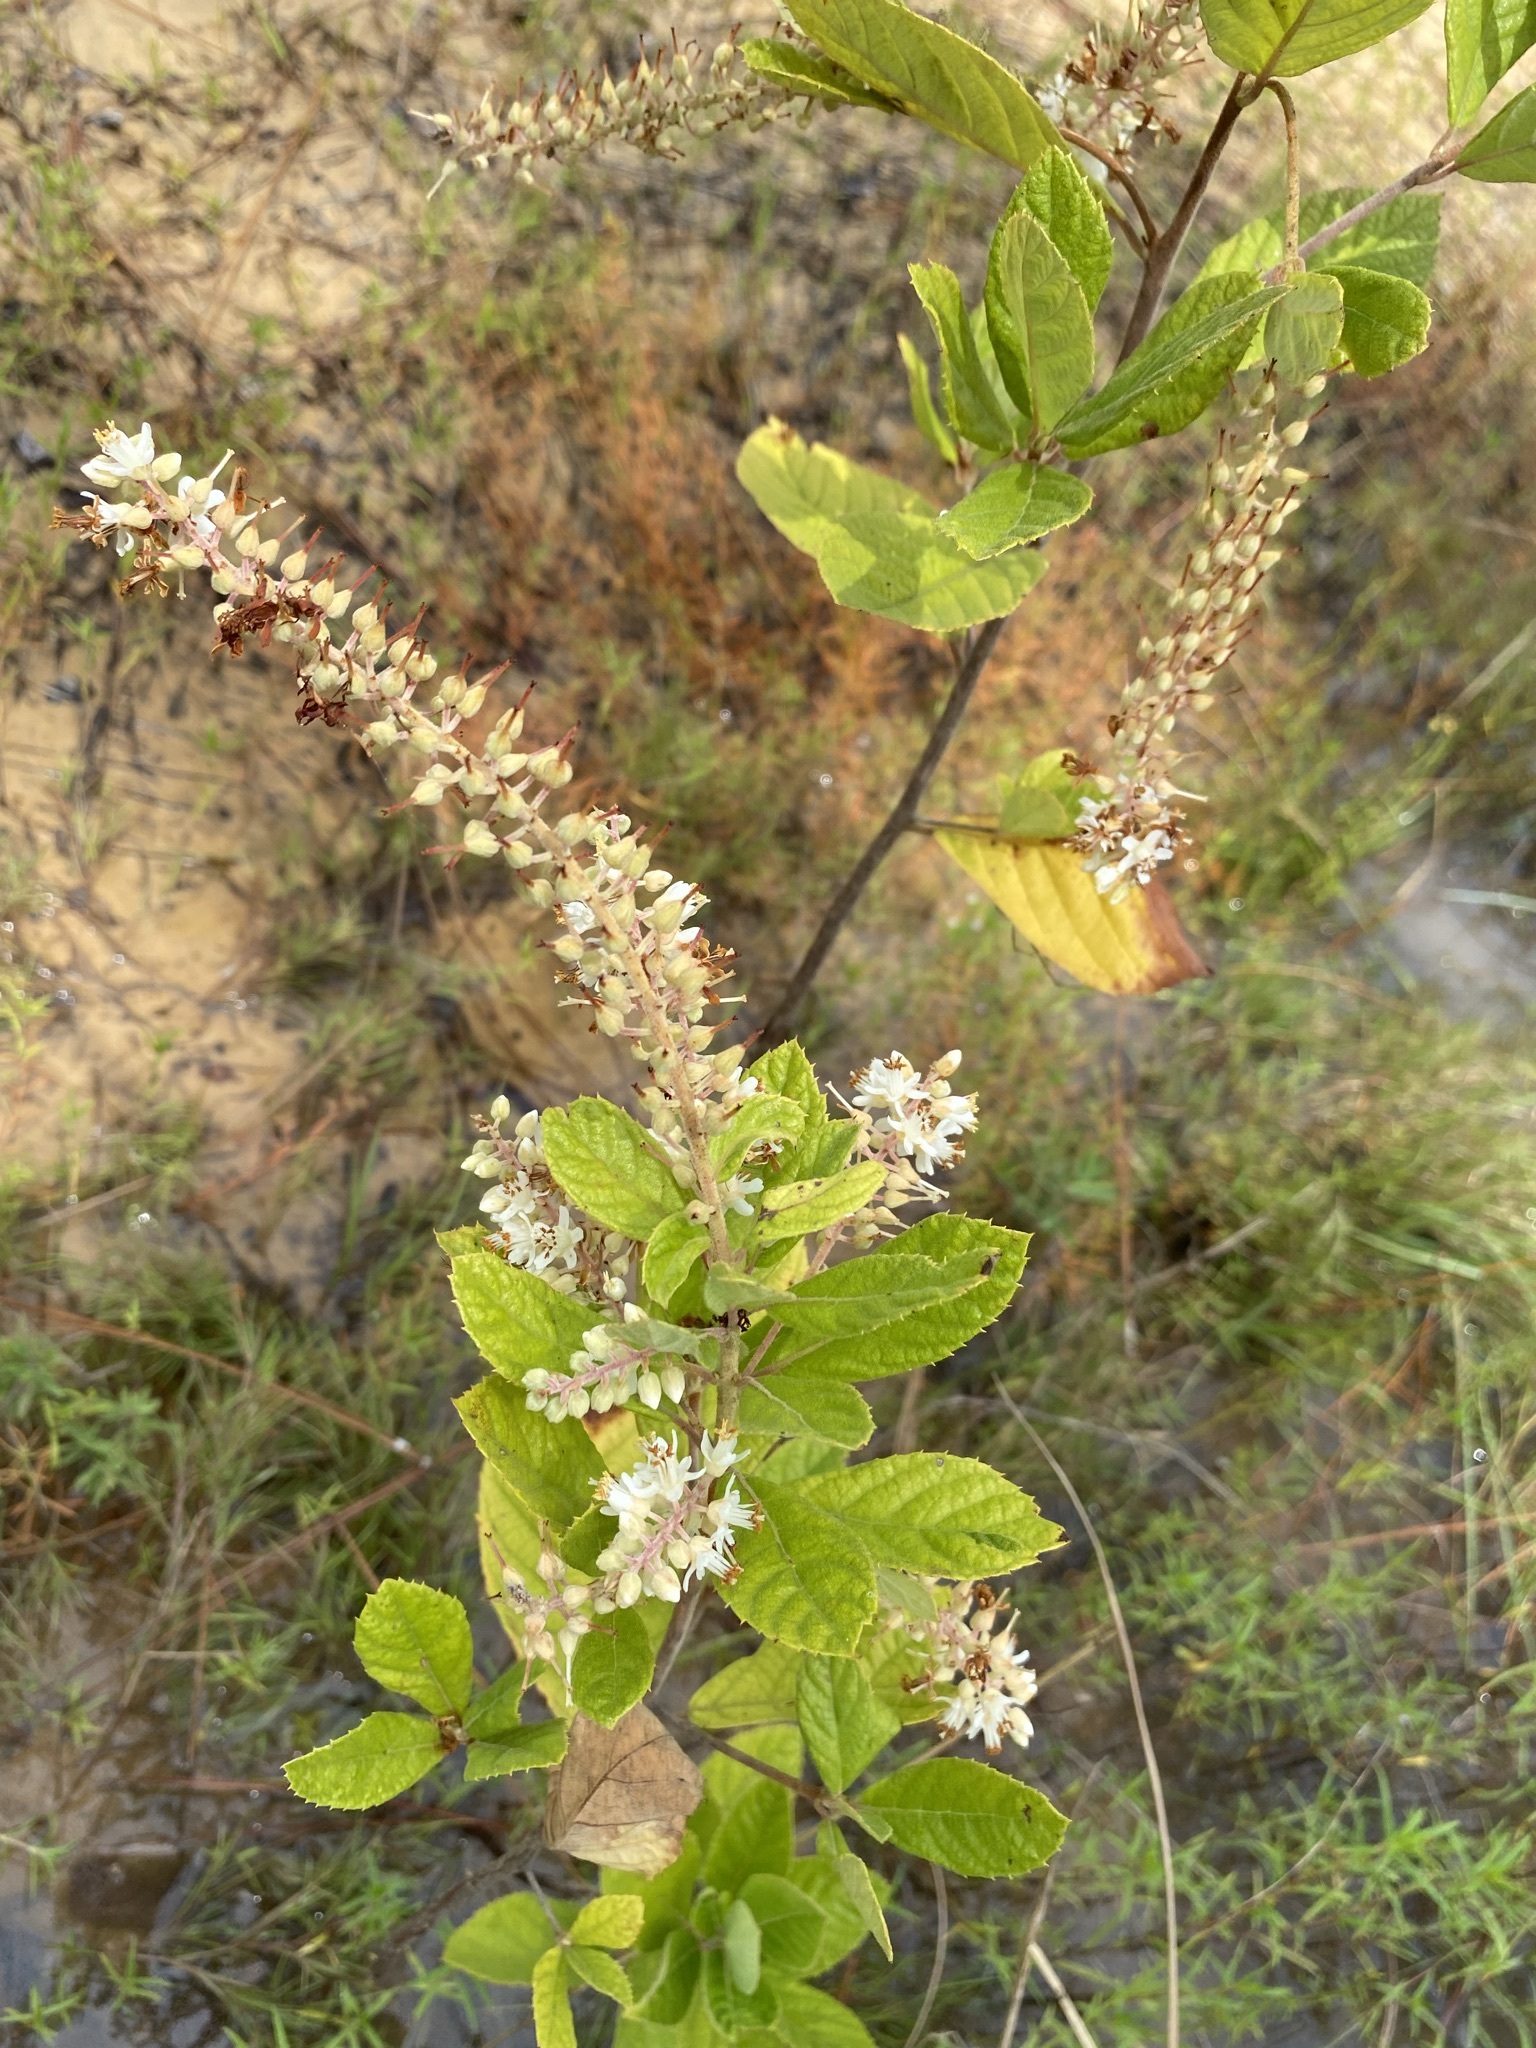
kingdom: Plantae
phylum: Tracheophyta
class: Magnoliopsida
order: Ericales
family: Clethraceae
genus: Clethra
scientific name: Clethra tomentosa
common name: Downy sweet pepperbush
